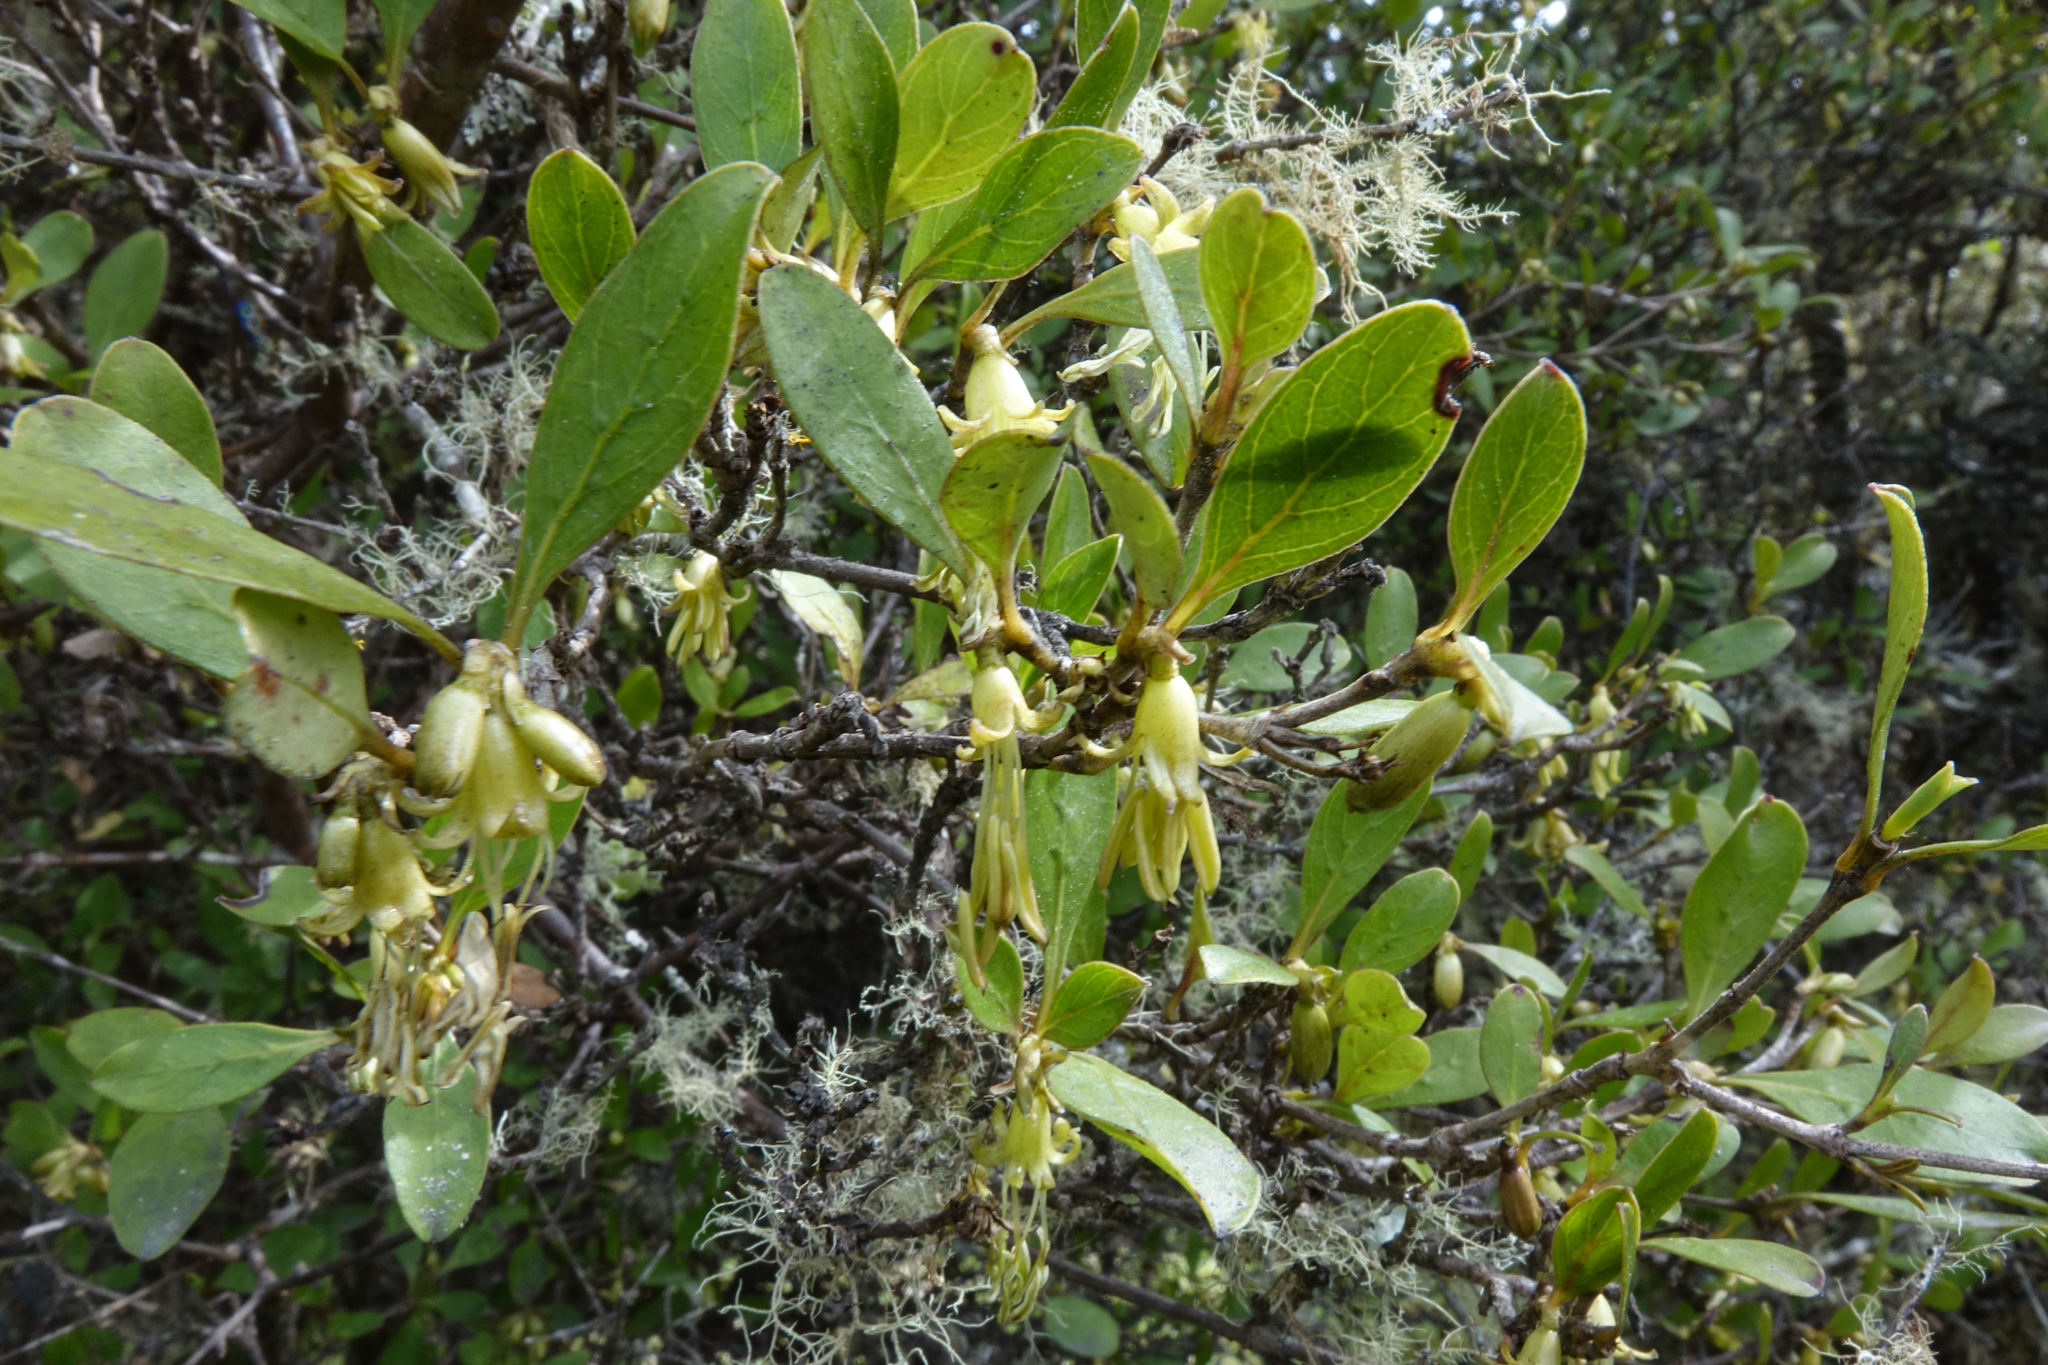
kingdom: Plantae
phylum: Tracheophyta
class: Magnoliopsida
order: Gentianales
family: Rubiaceae
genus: Coprosma
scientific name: Coprosma foetidissima
